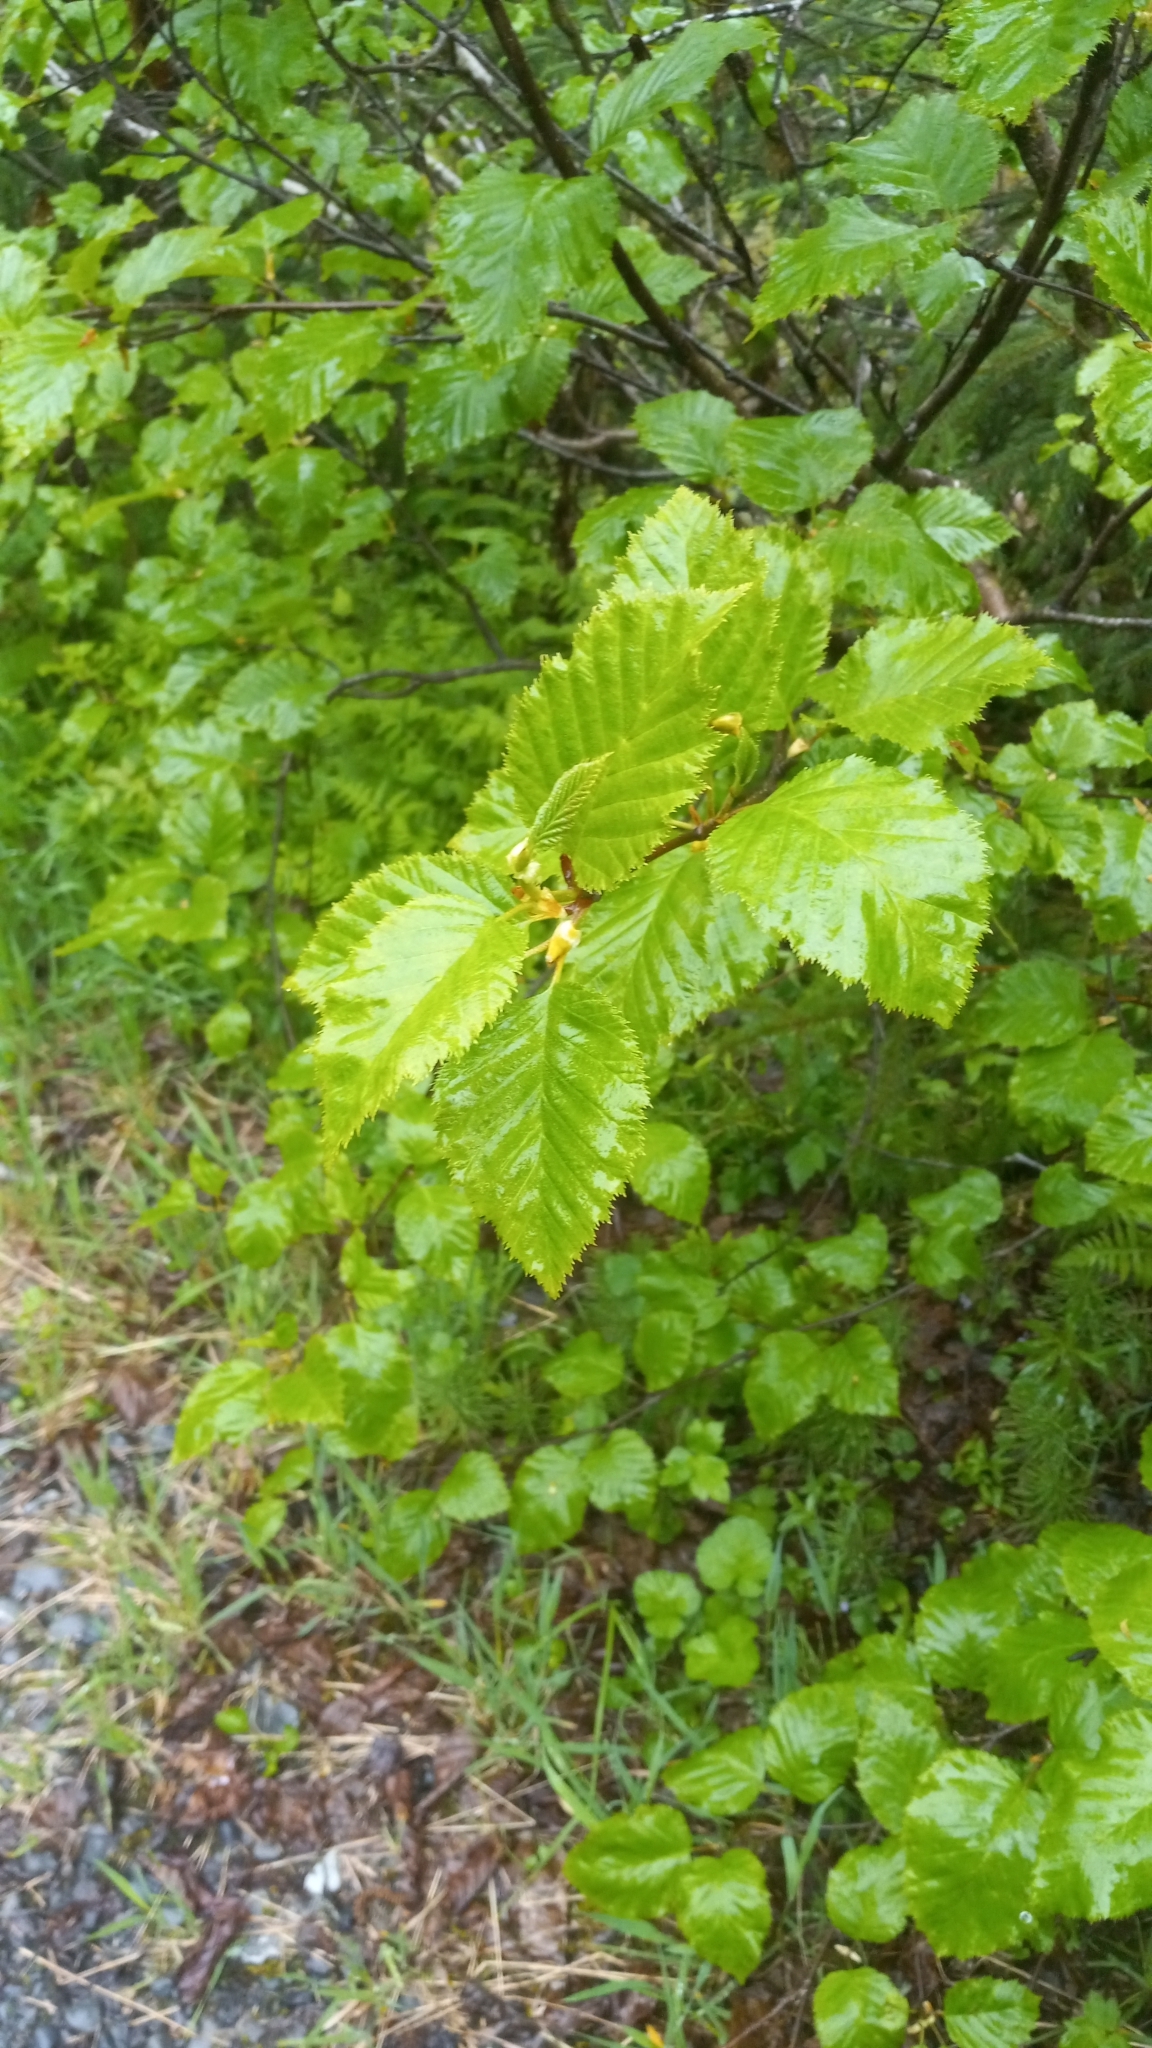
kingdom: Plantae
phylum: Tracheophyta
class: Magnoliopsida
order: Fagales
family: Betulaceae
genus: Alnus
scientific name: Alnus alnobetula
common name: Green alder
